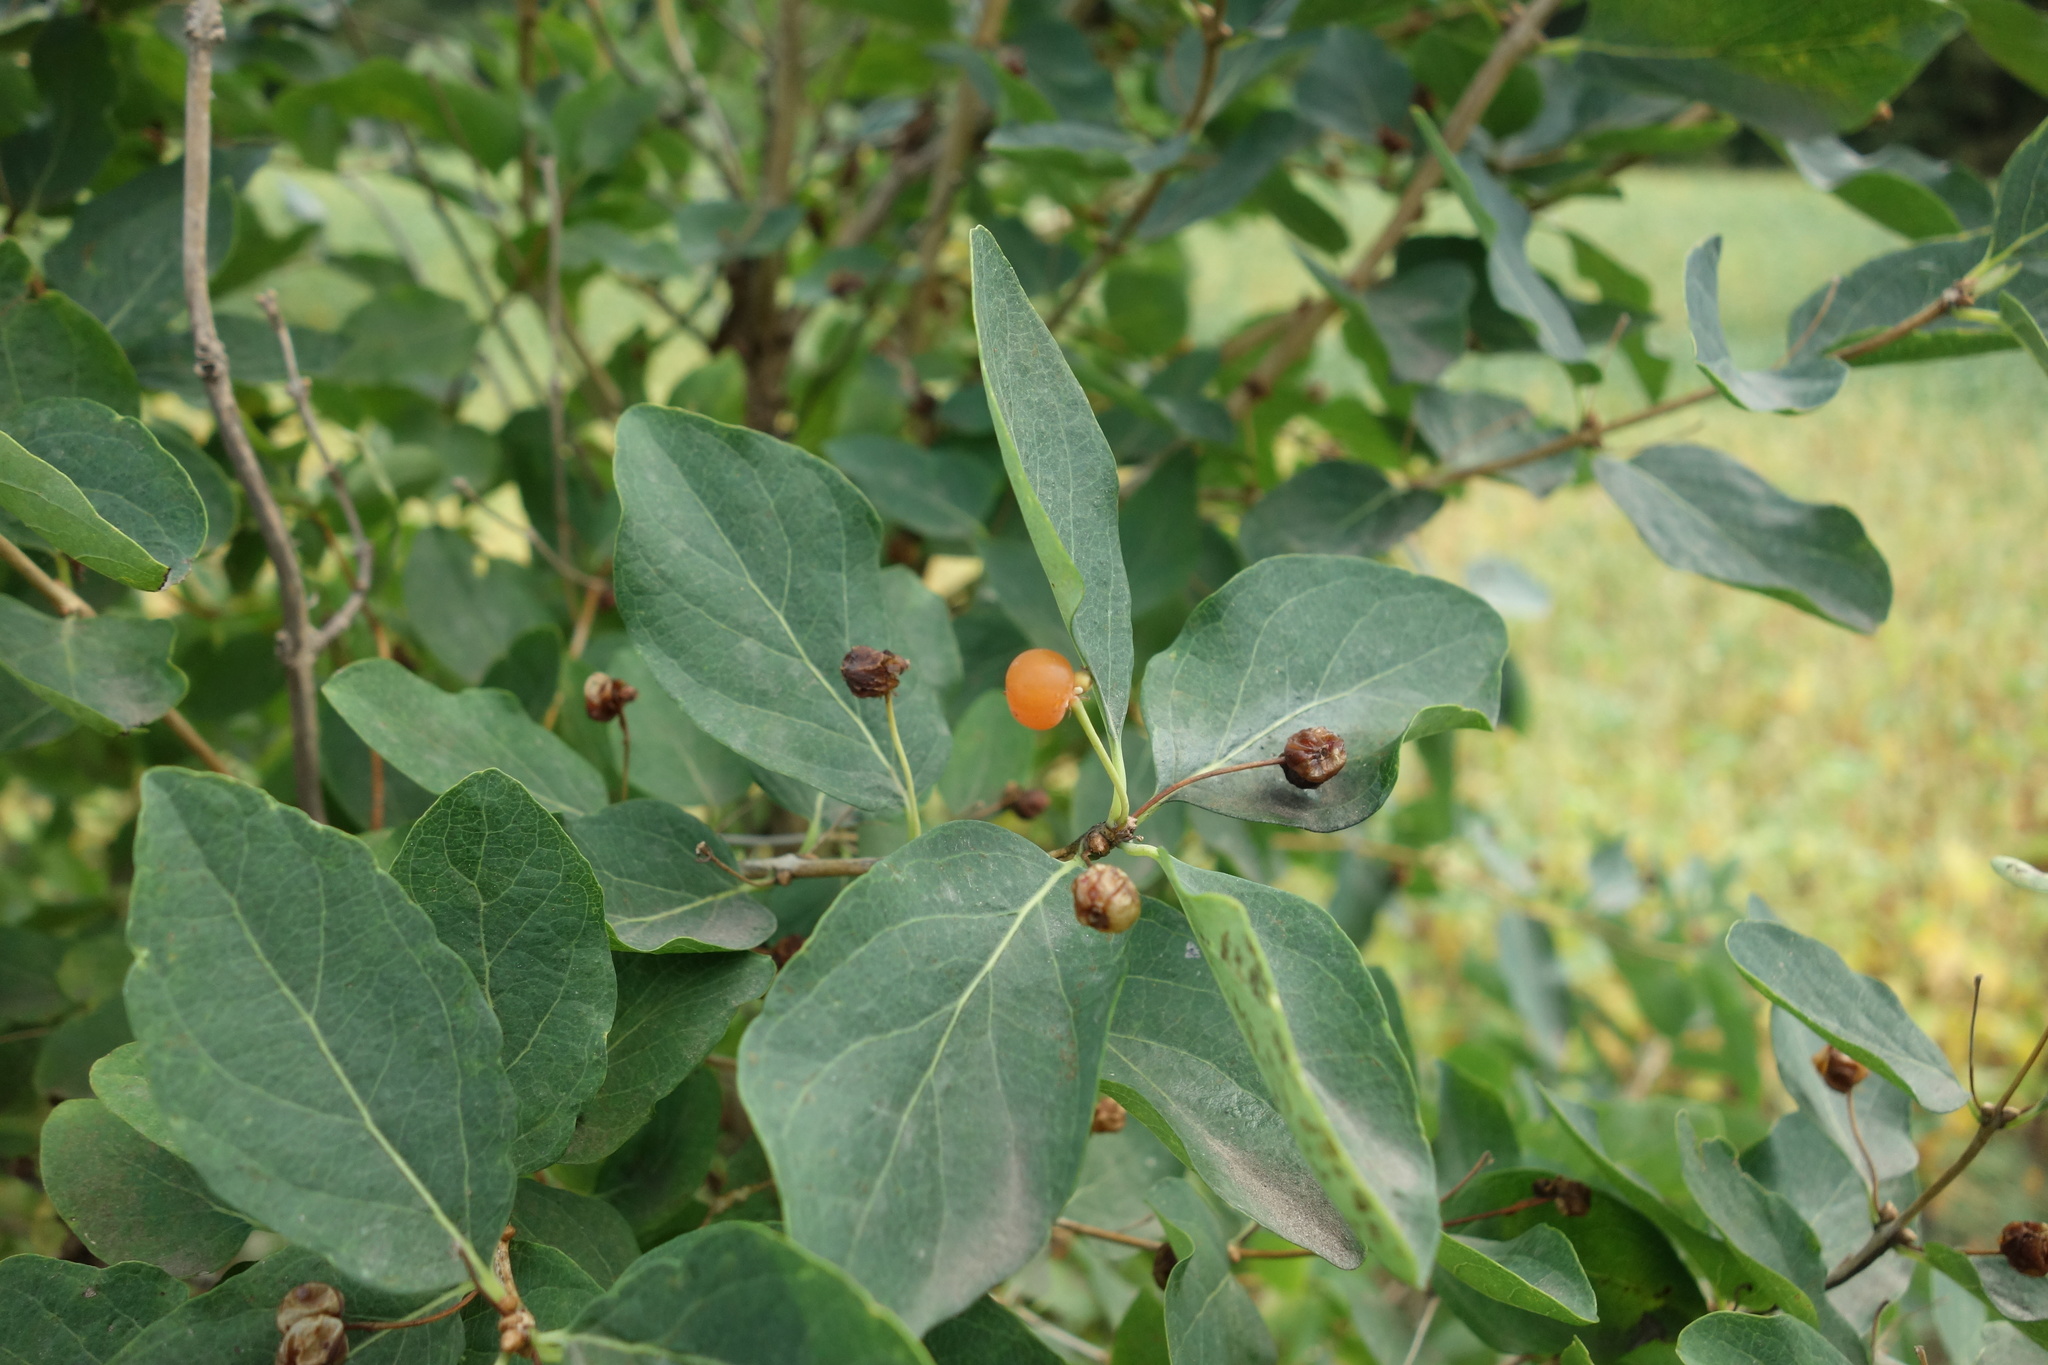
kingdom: Plantae
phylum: Tracheophyta
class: Magnoliopsida
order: Dipsacales
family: Caprifoliaceae
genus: Lonicera
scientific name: Lonicera tatarica
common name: Tatarian honeysuckle
